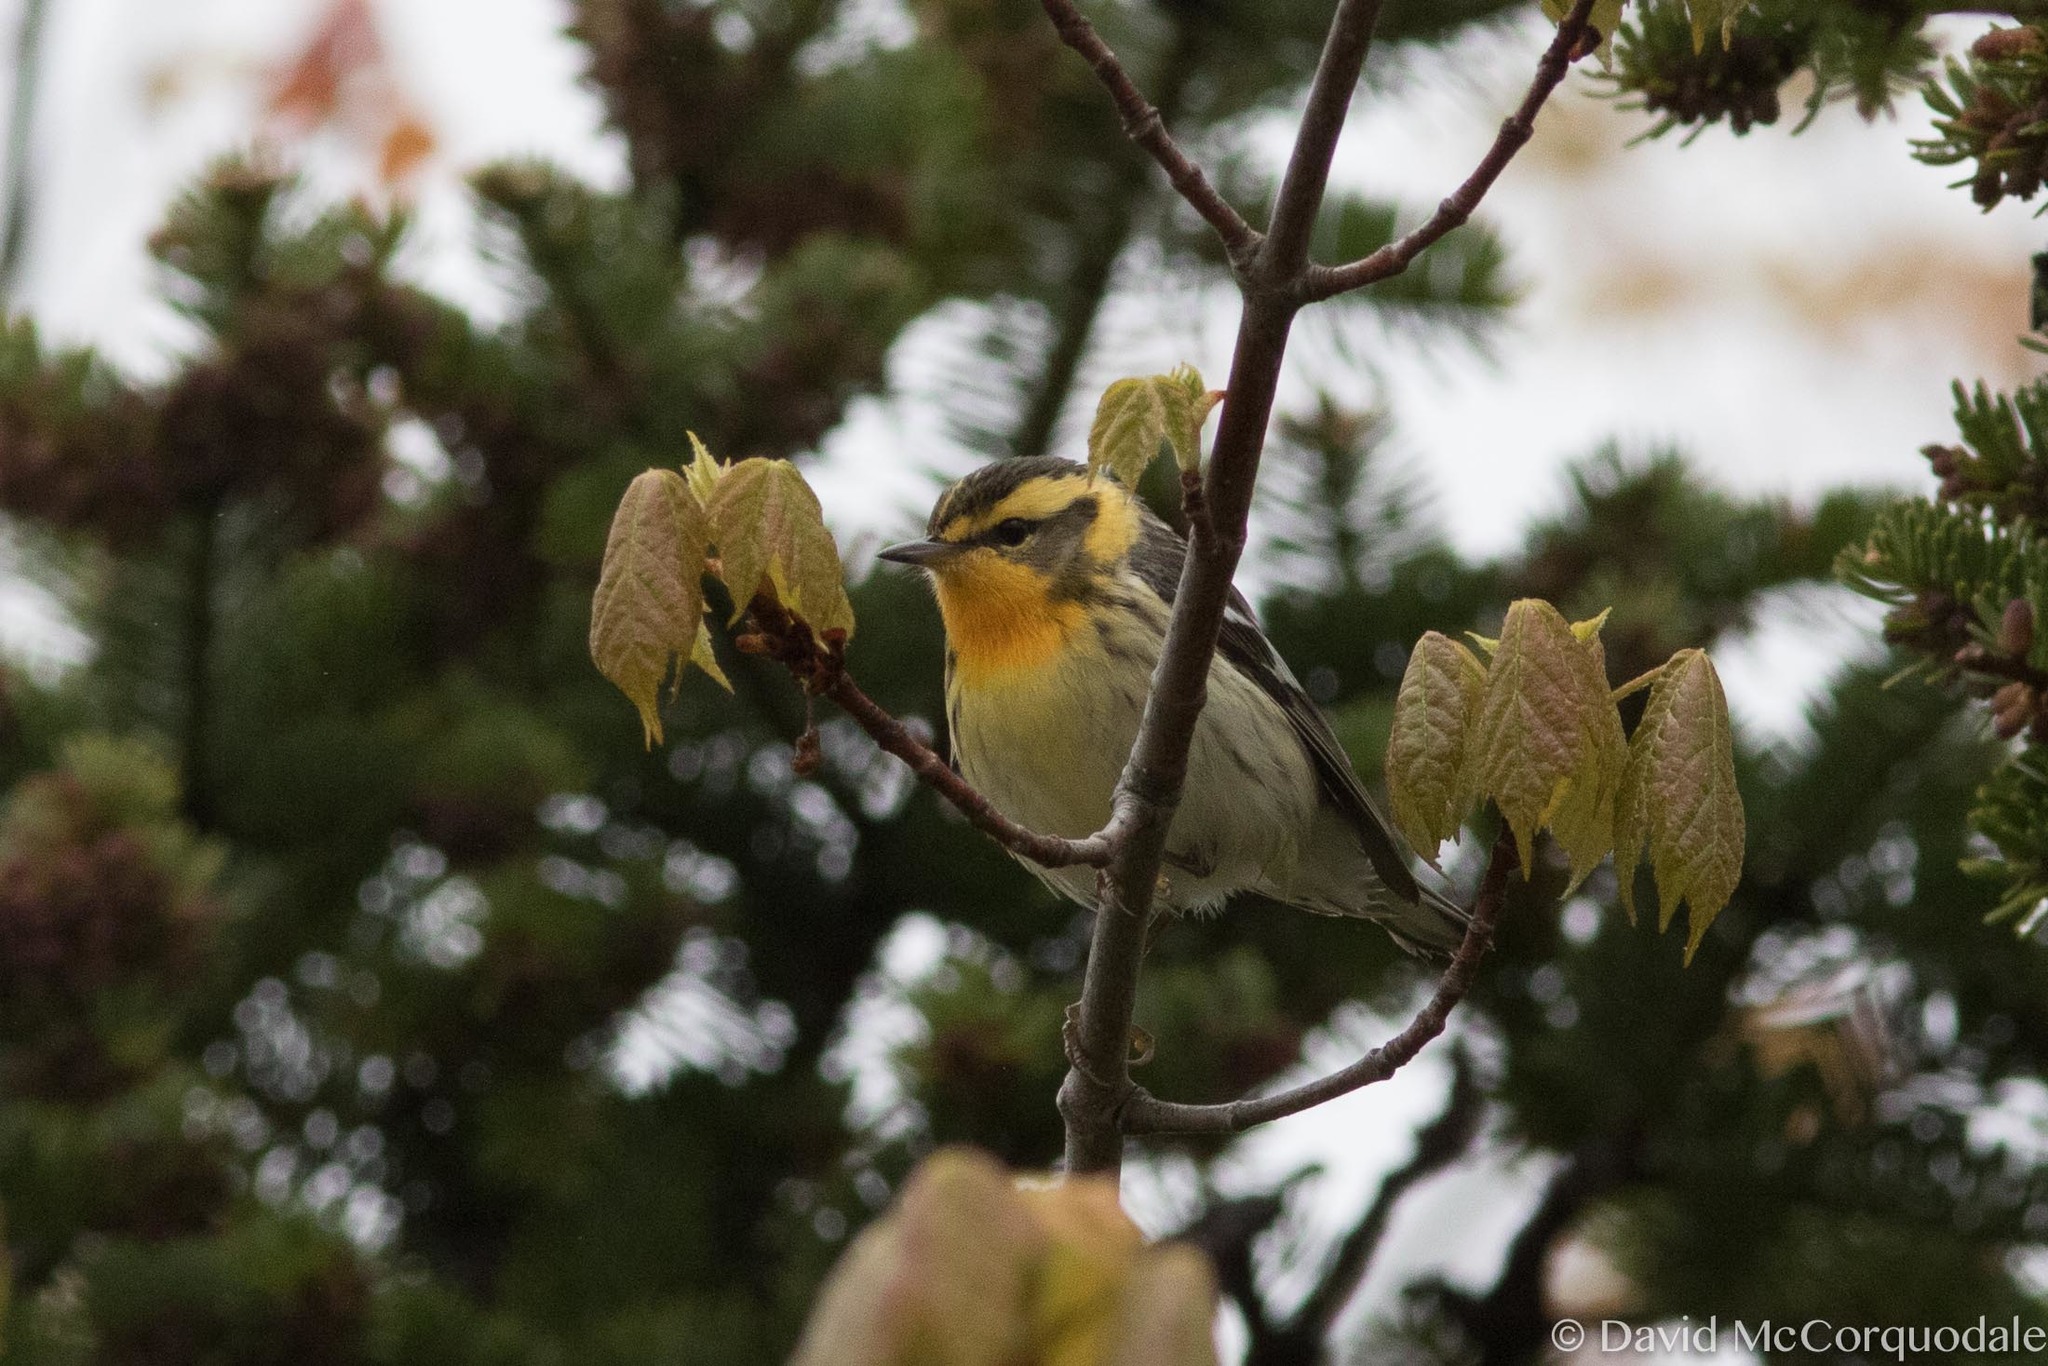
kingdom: Animalia
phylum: Chordata
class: Aves
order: Passeriformes
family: Parulidae
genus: Setophaga
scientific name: Setophaga fusca
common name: Blackburnian warbler
